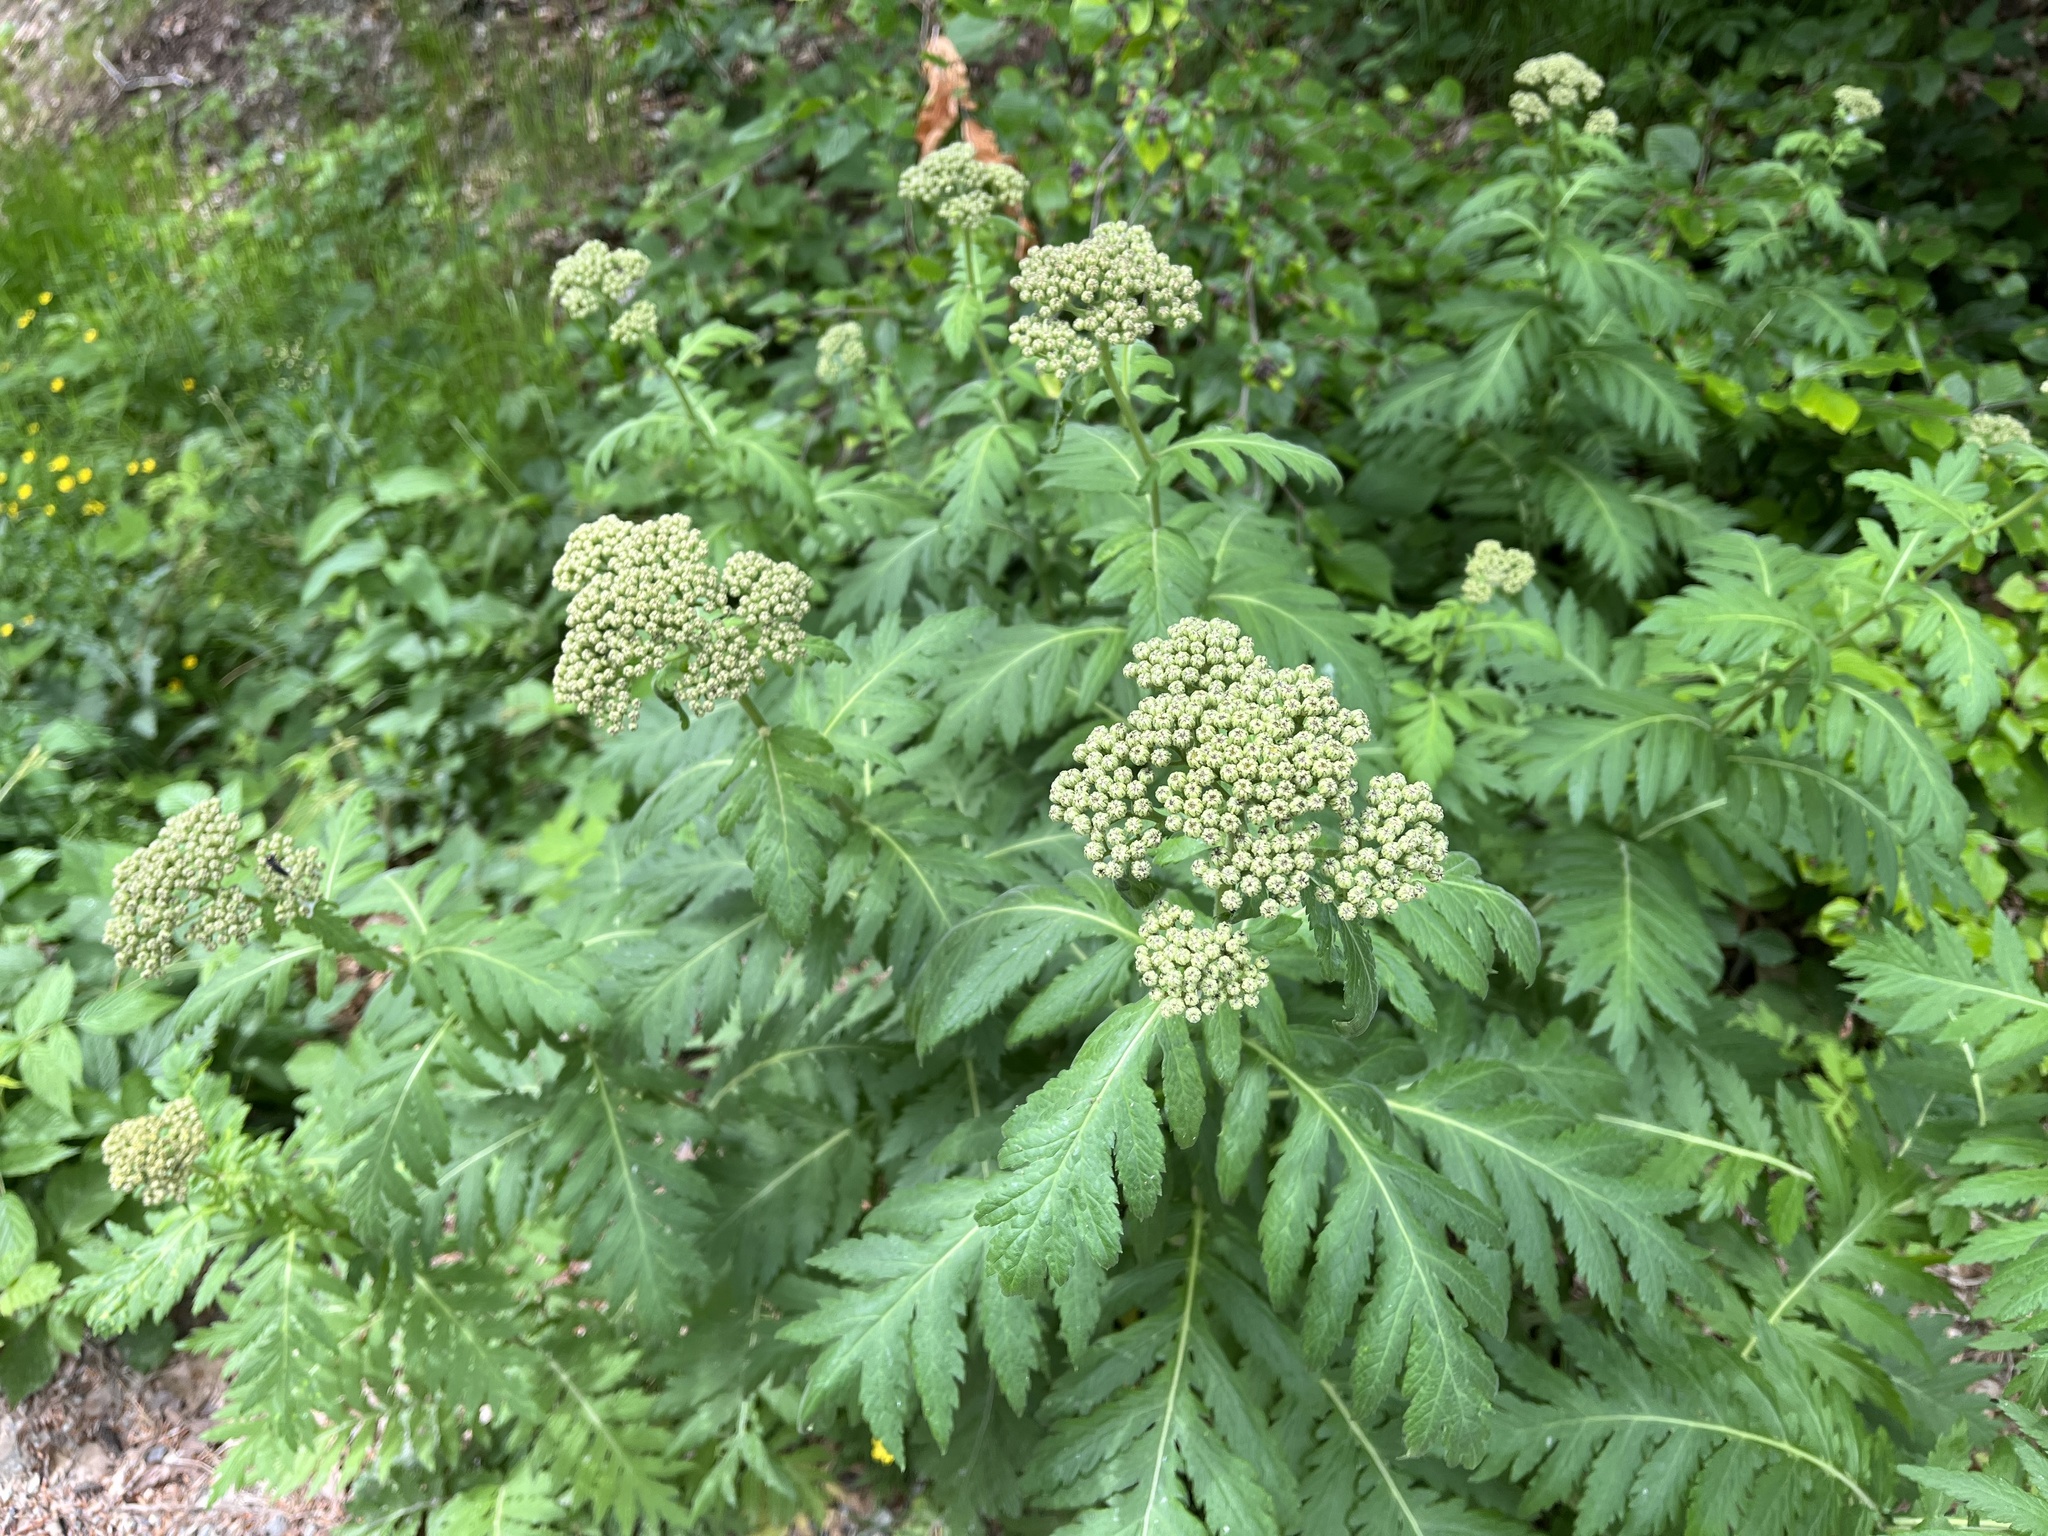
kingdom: Plantae
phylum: Tracheophyta
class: Magnoliopsida
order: Asterales
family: Asteraceae
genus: Tanacetum
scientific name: Tanacetum macrophyllum
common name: Rayed tansy
